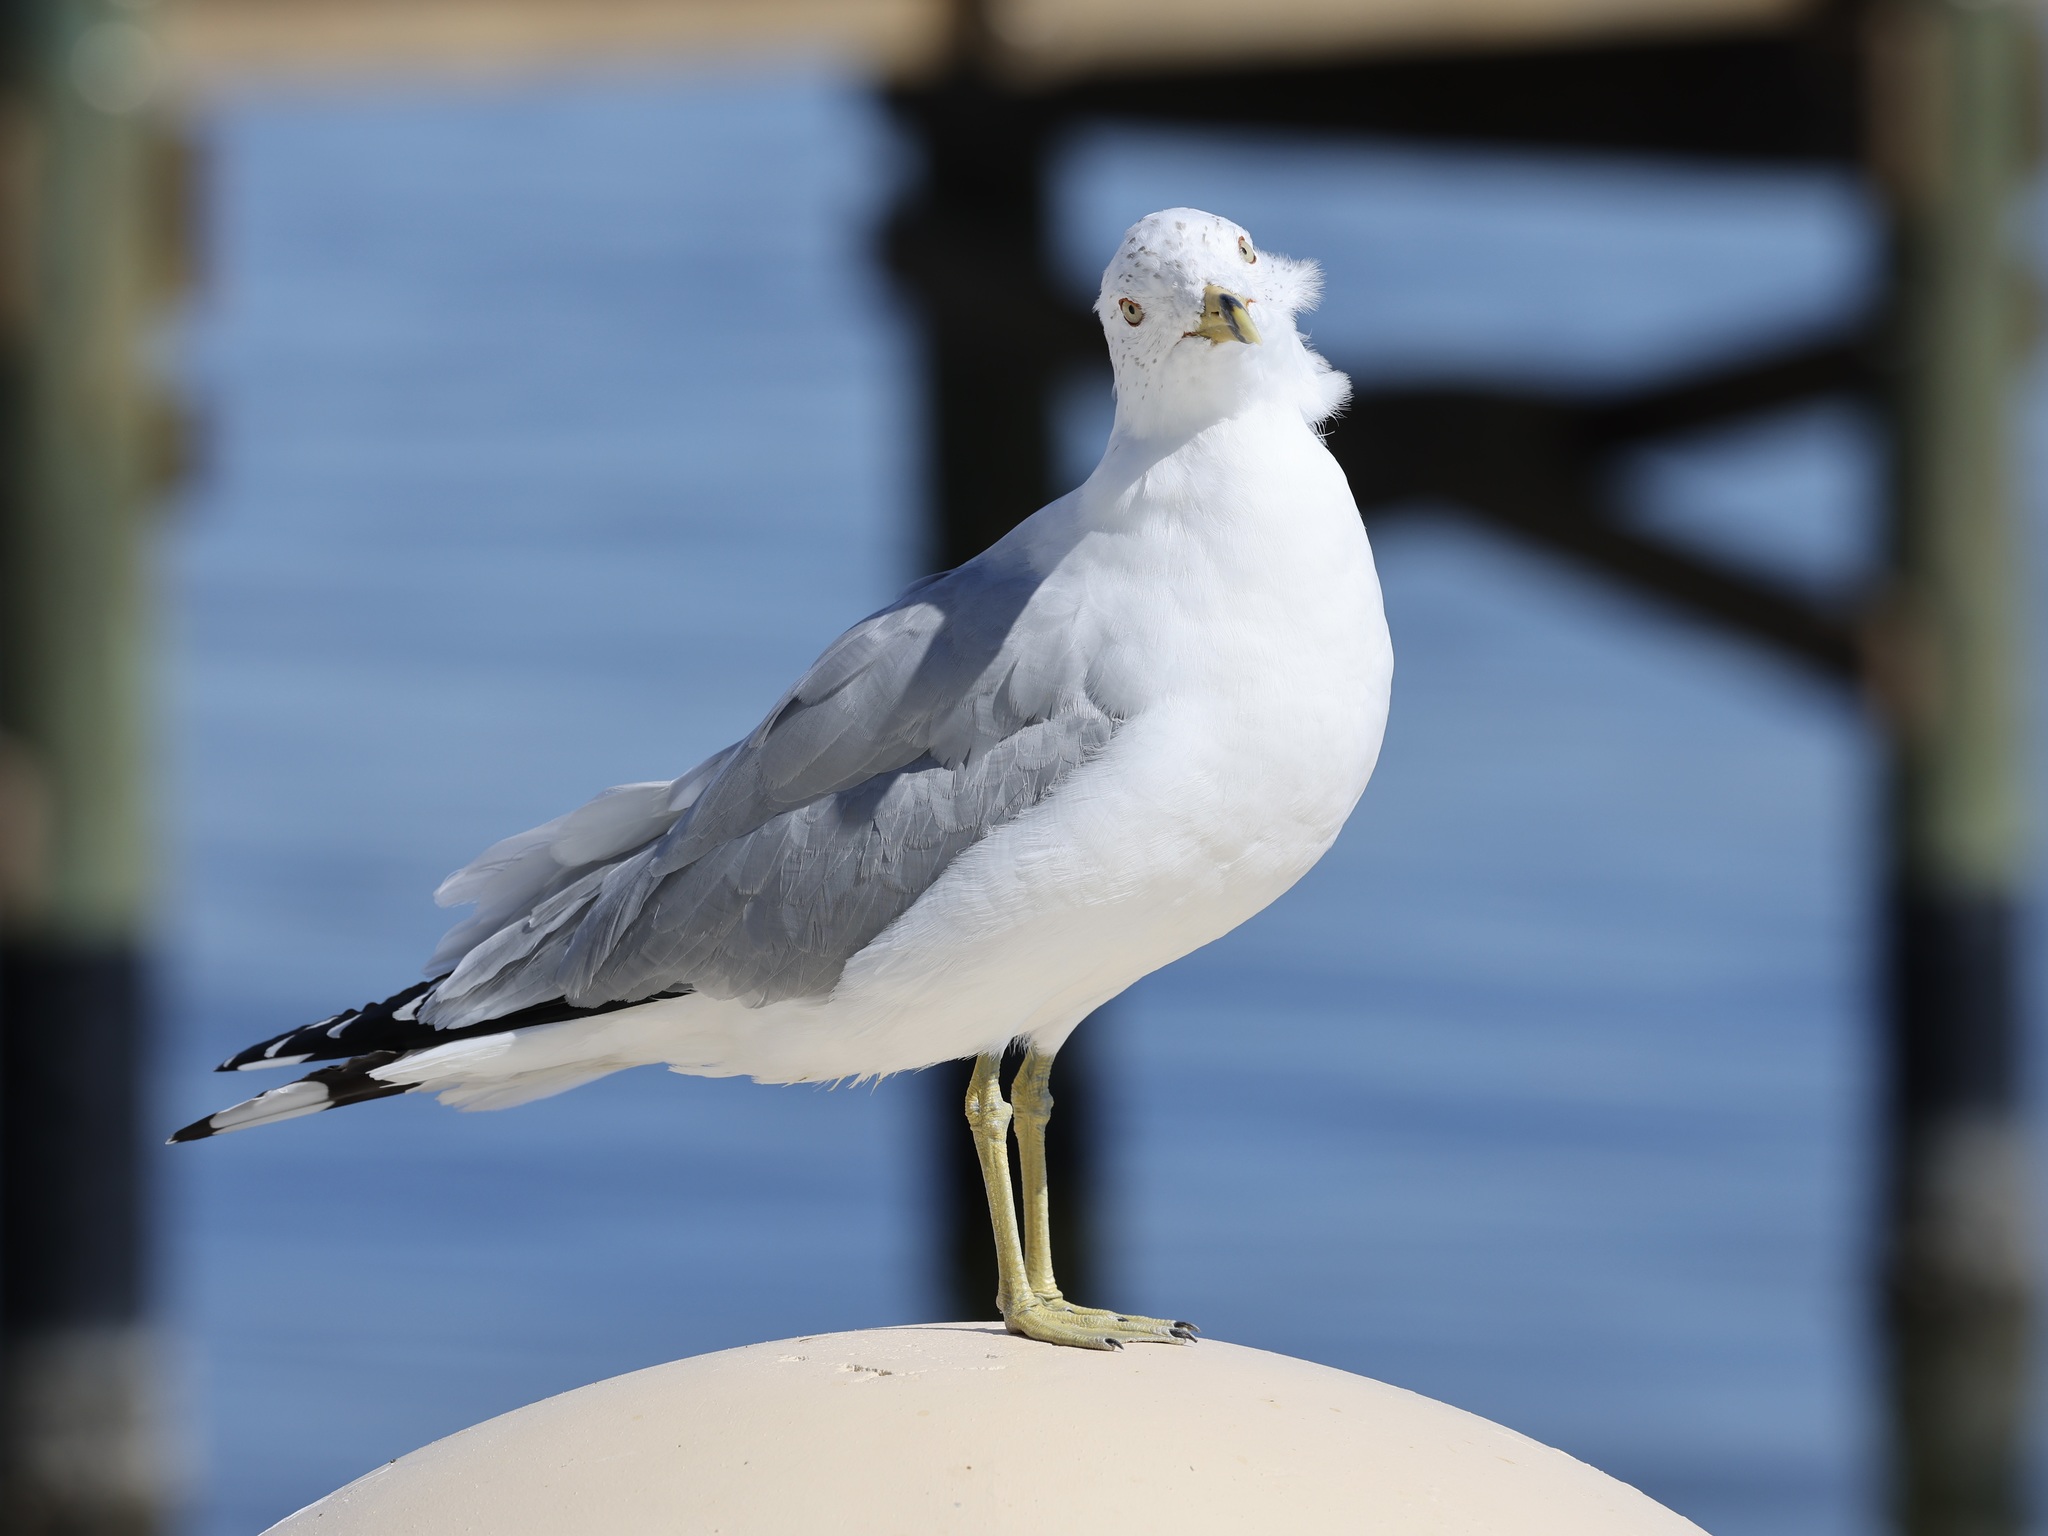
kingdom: Animalia
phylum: Chordata
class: Aves
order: Charadriiformes
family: Laridae
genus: Larus
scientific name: Larus delawarensis
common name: Ring-billed gull
